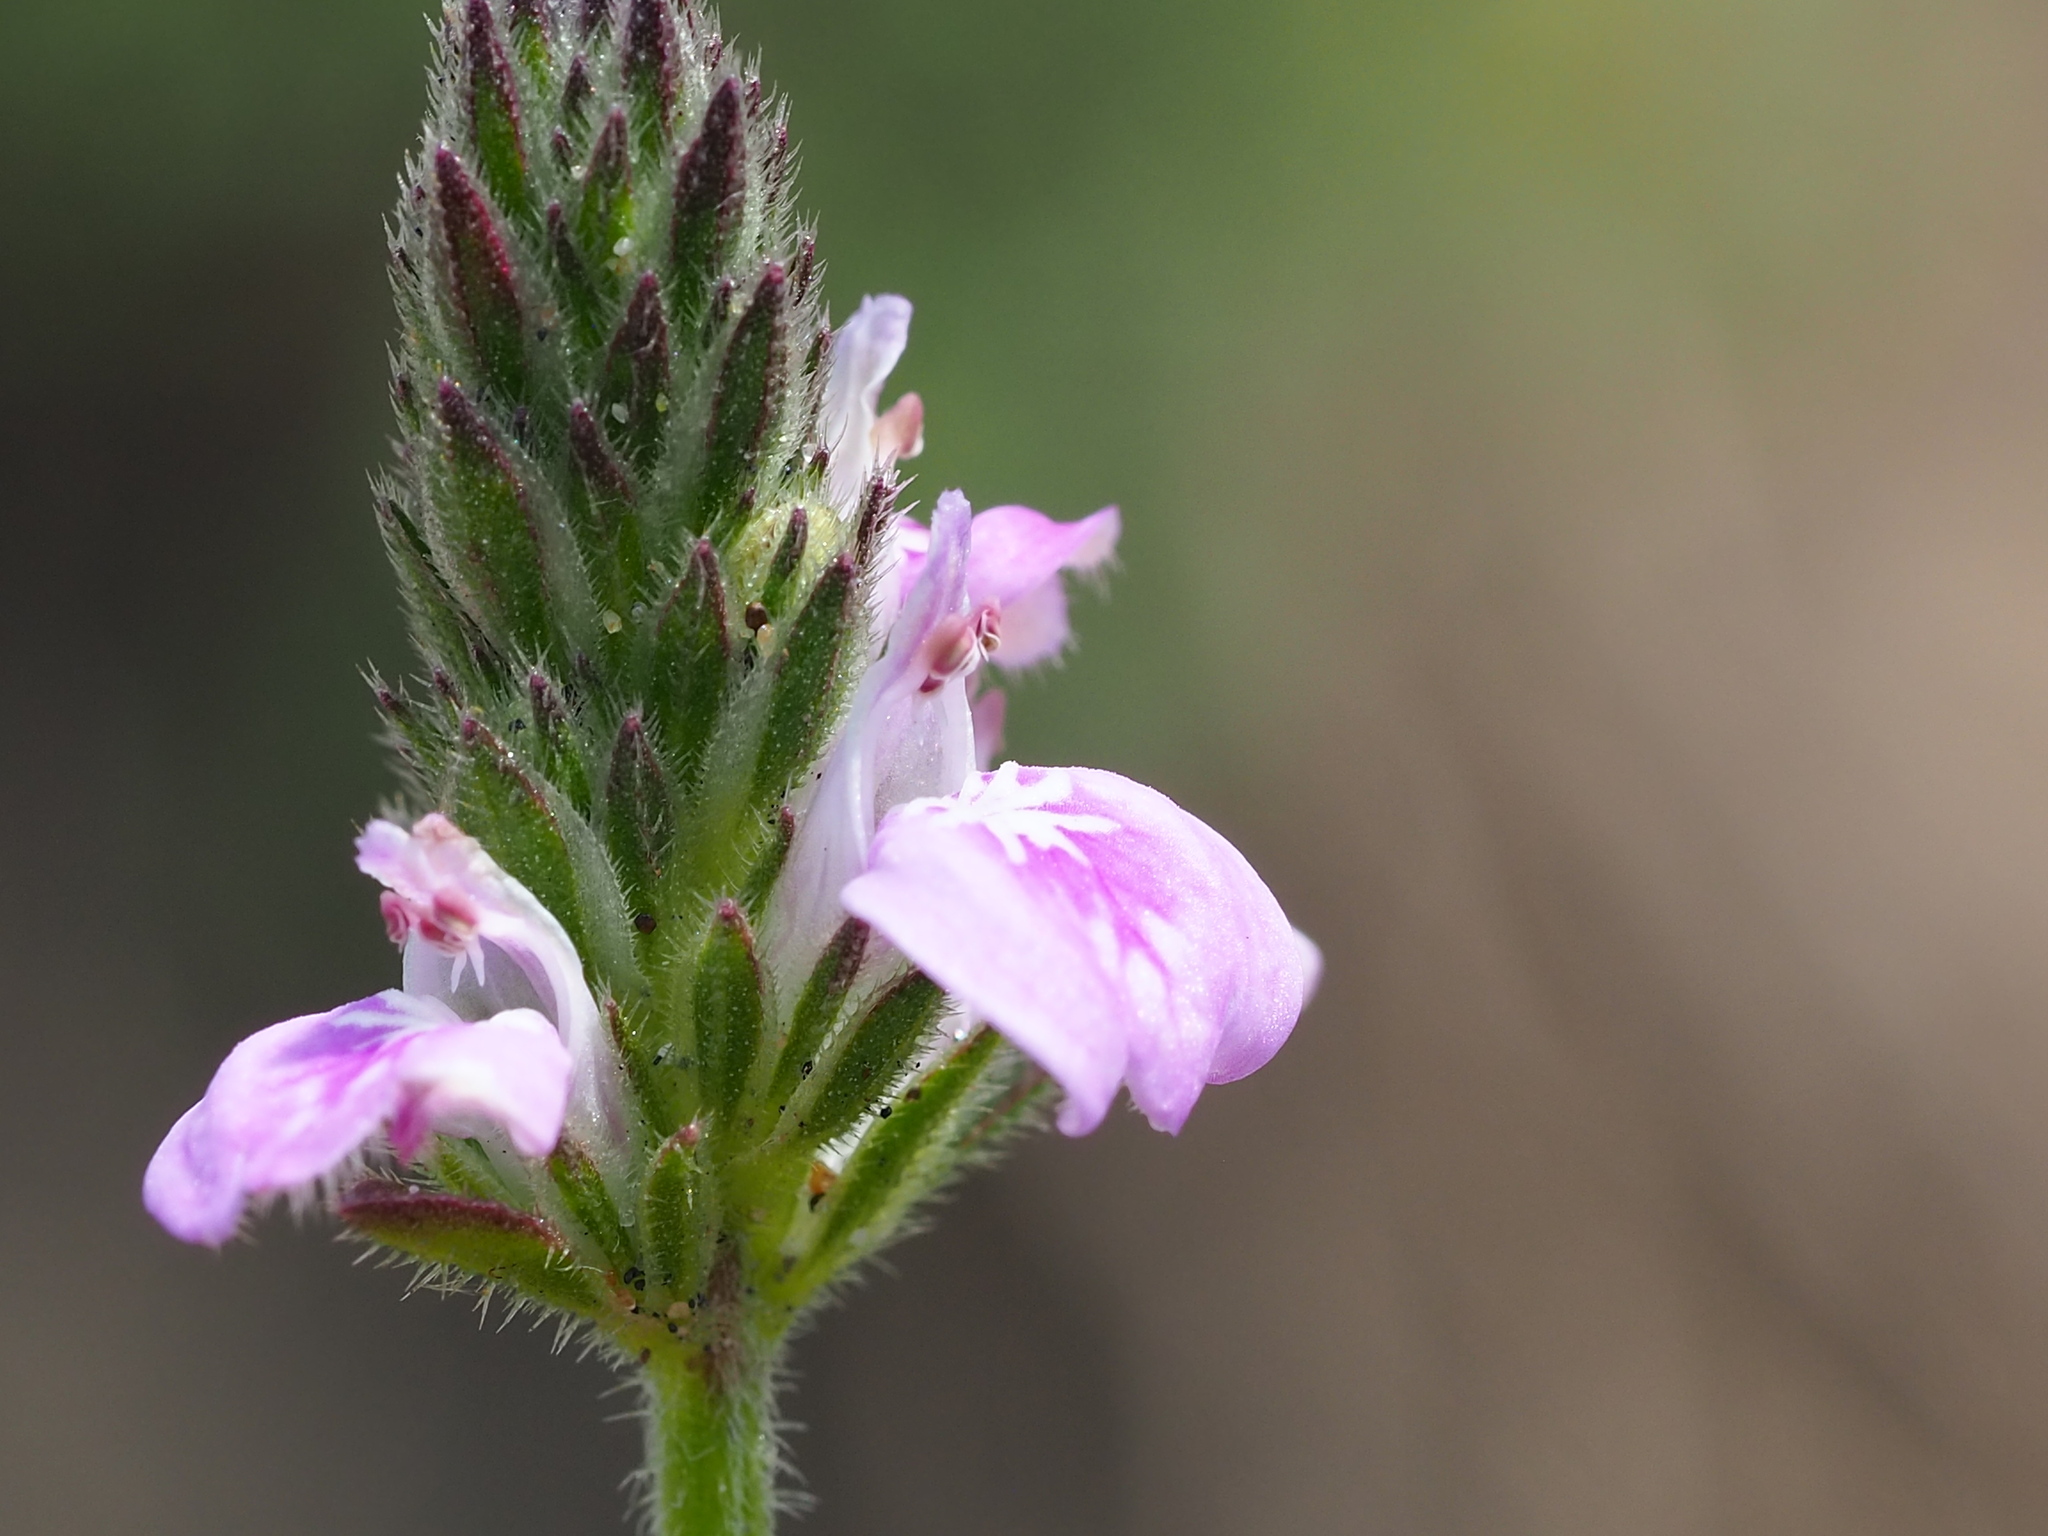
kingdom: Plantae
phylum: Tracheophyta
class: Magnoliopsida
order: Lamiales
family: Acanthaceae
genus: Rostellularia
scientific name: Rostellularia procumbens
